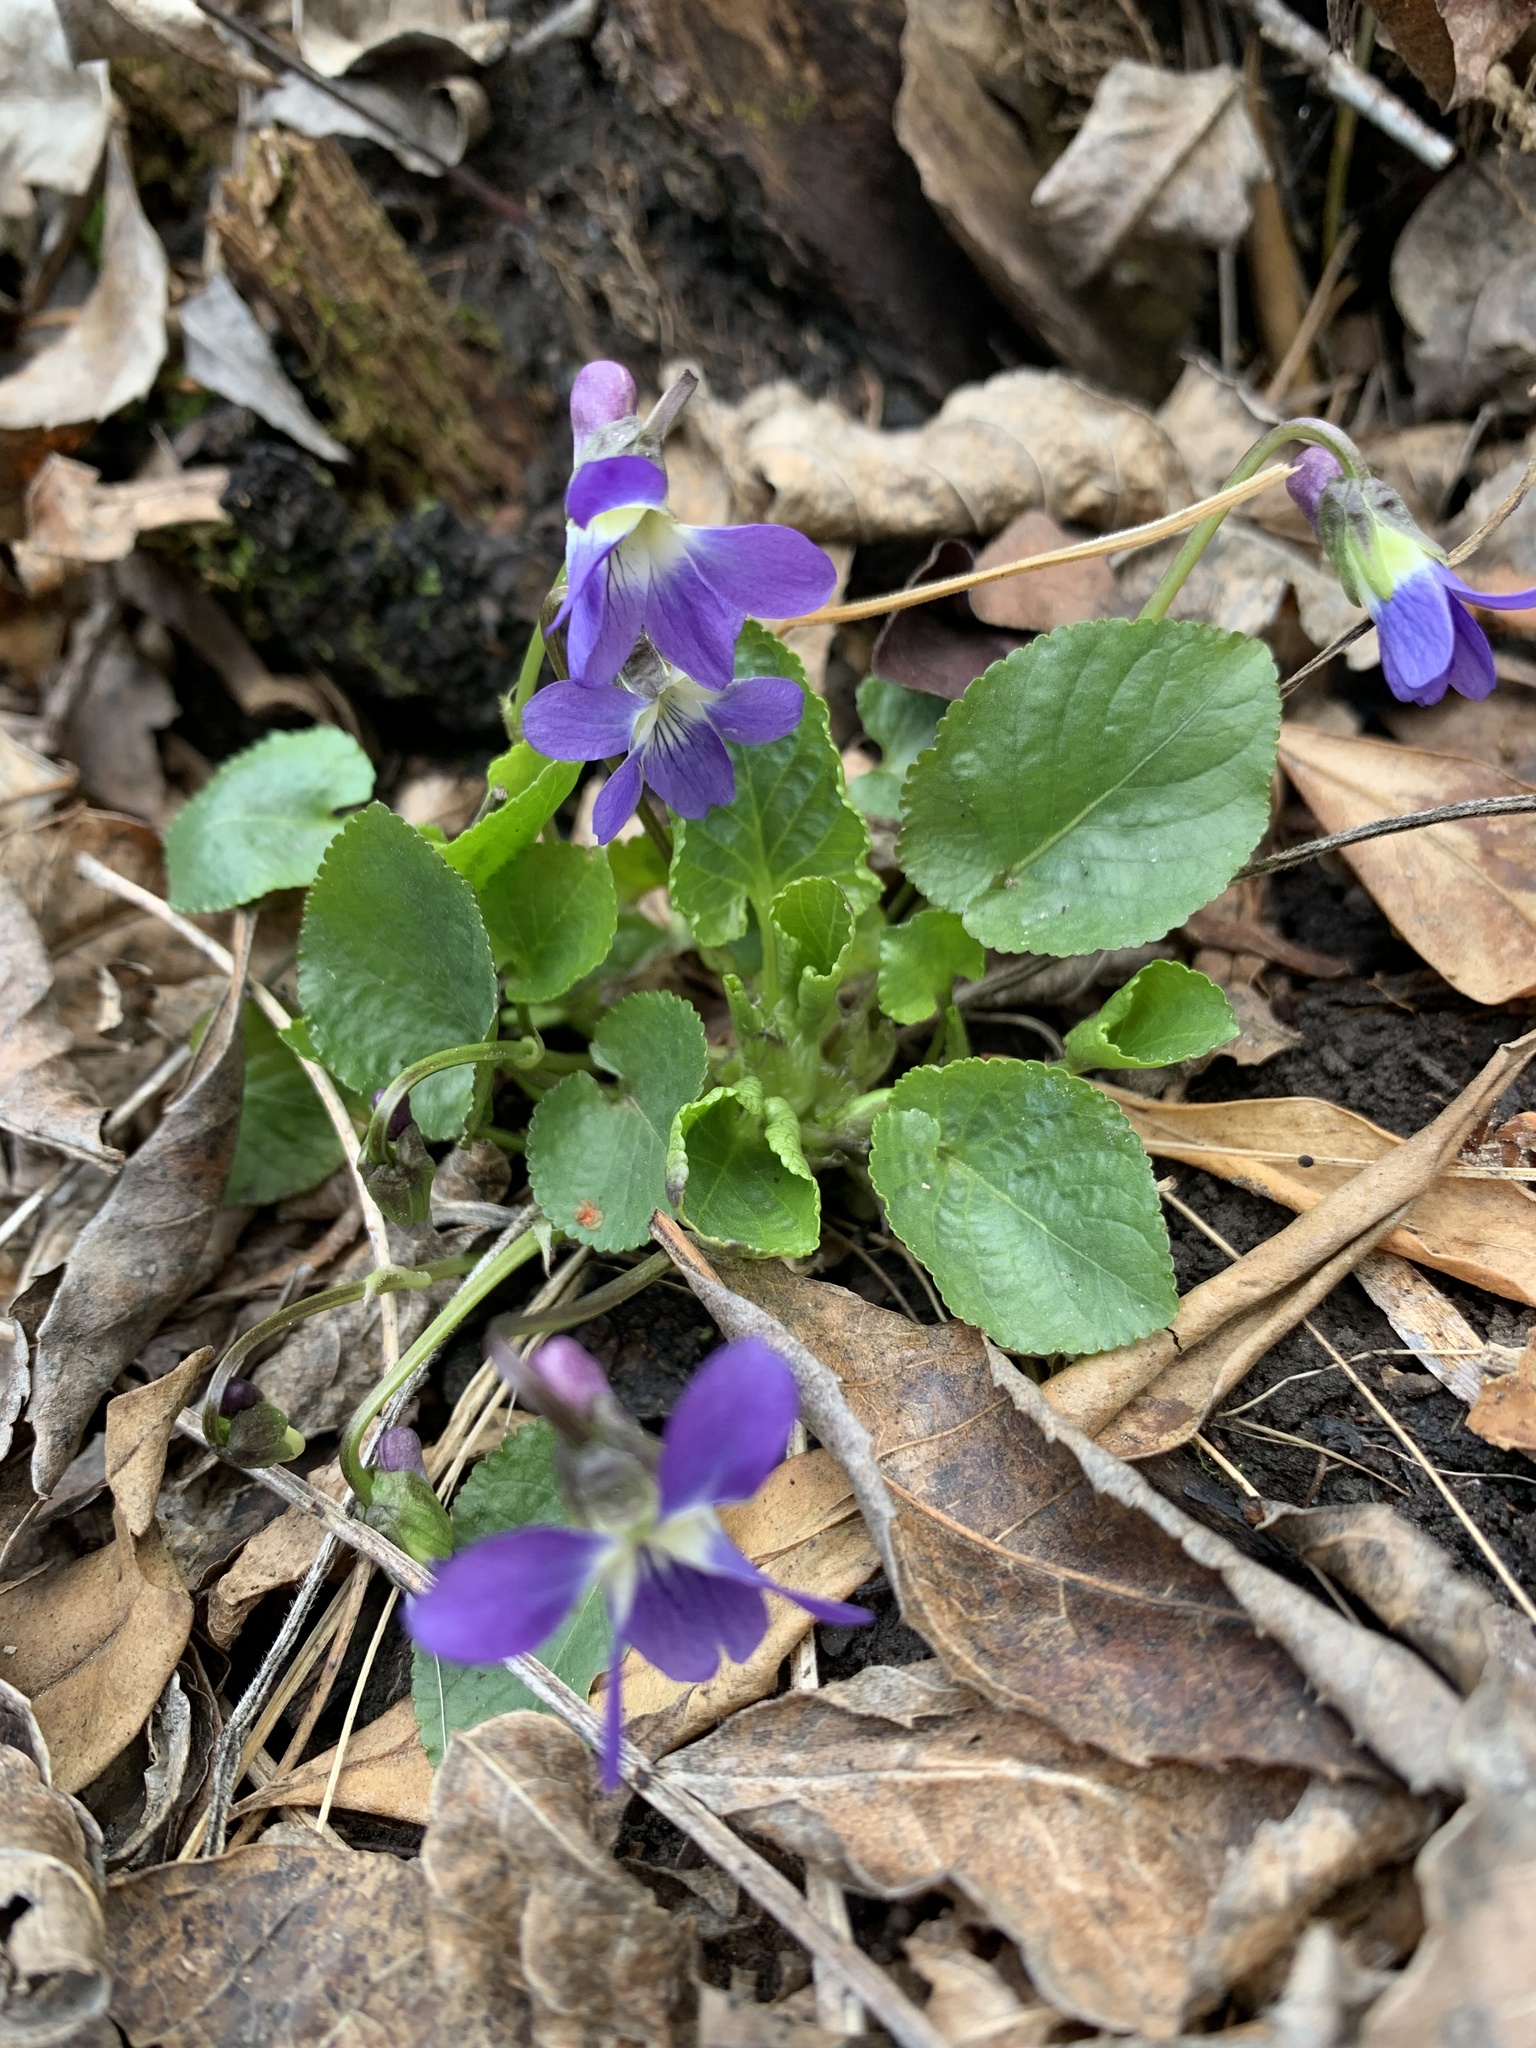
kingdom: Plantae
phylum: Tracheophyta
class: Magnoliopsida
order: Malpighiales
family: Violaceae
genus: Viola
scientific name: Viola suavis
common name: Russian violet
